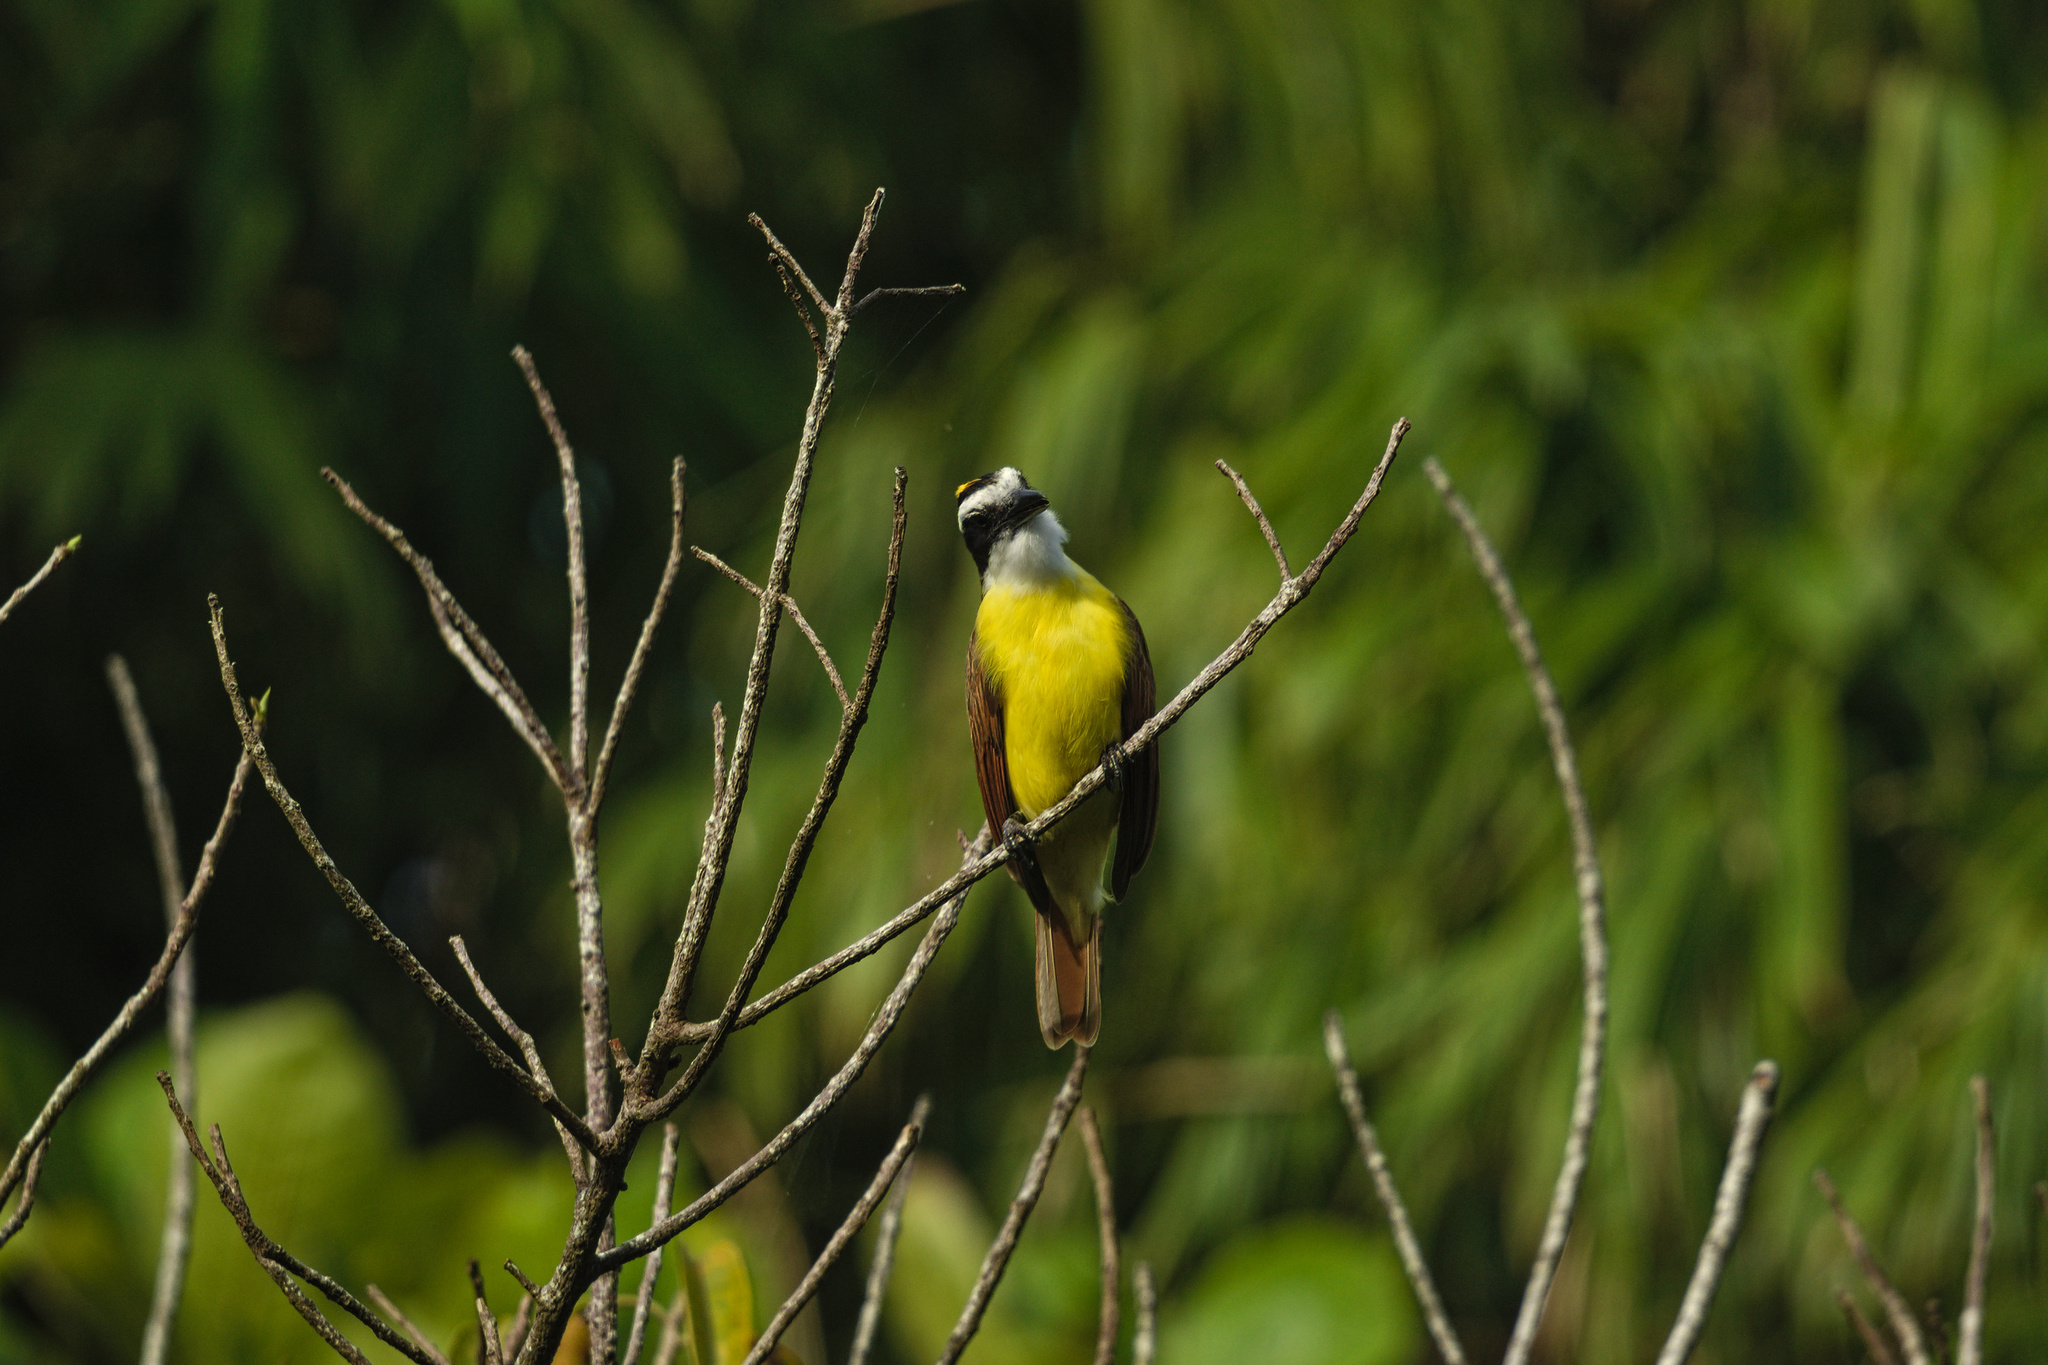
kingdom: Animalia
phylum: Chordata
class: Aves
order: Passeriformes
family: Tyrannidae
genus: Pitangus
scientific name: Pitangus sulphuratus
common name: Great kiskadee
